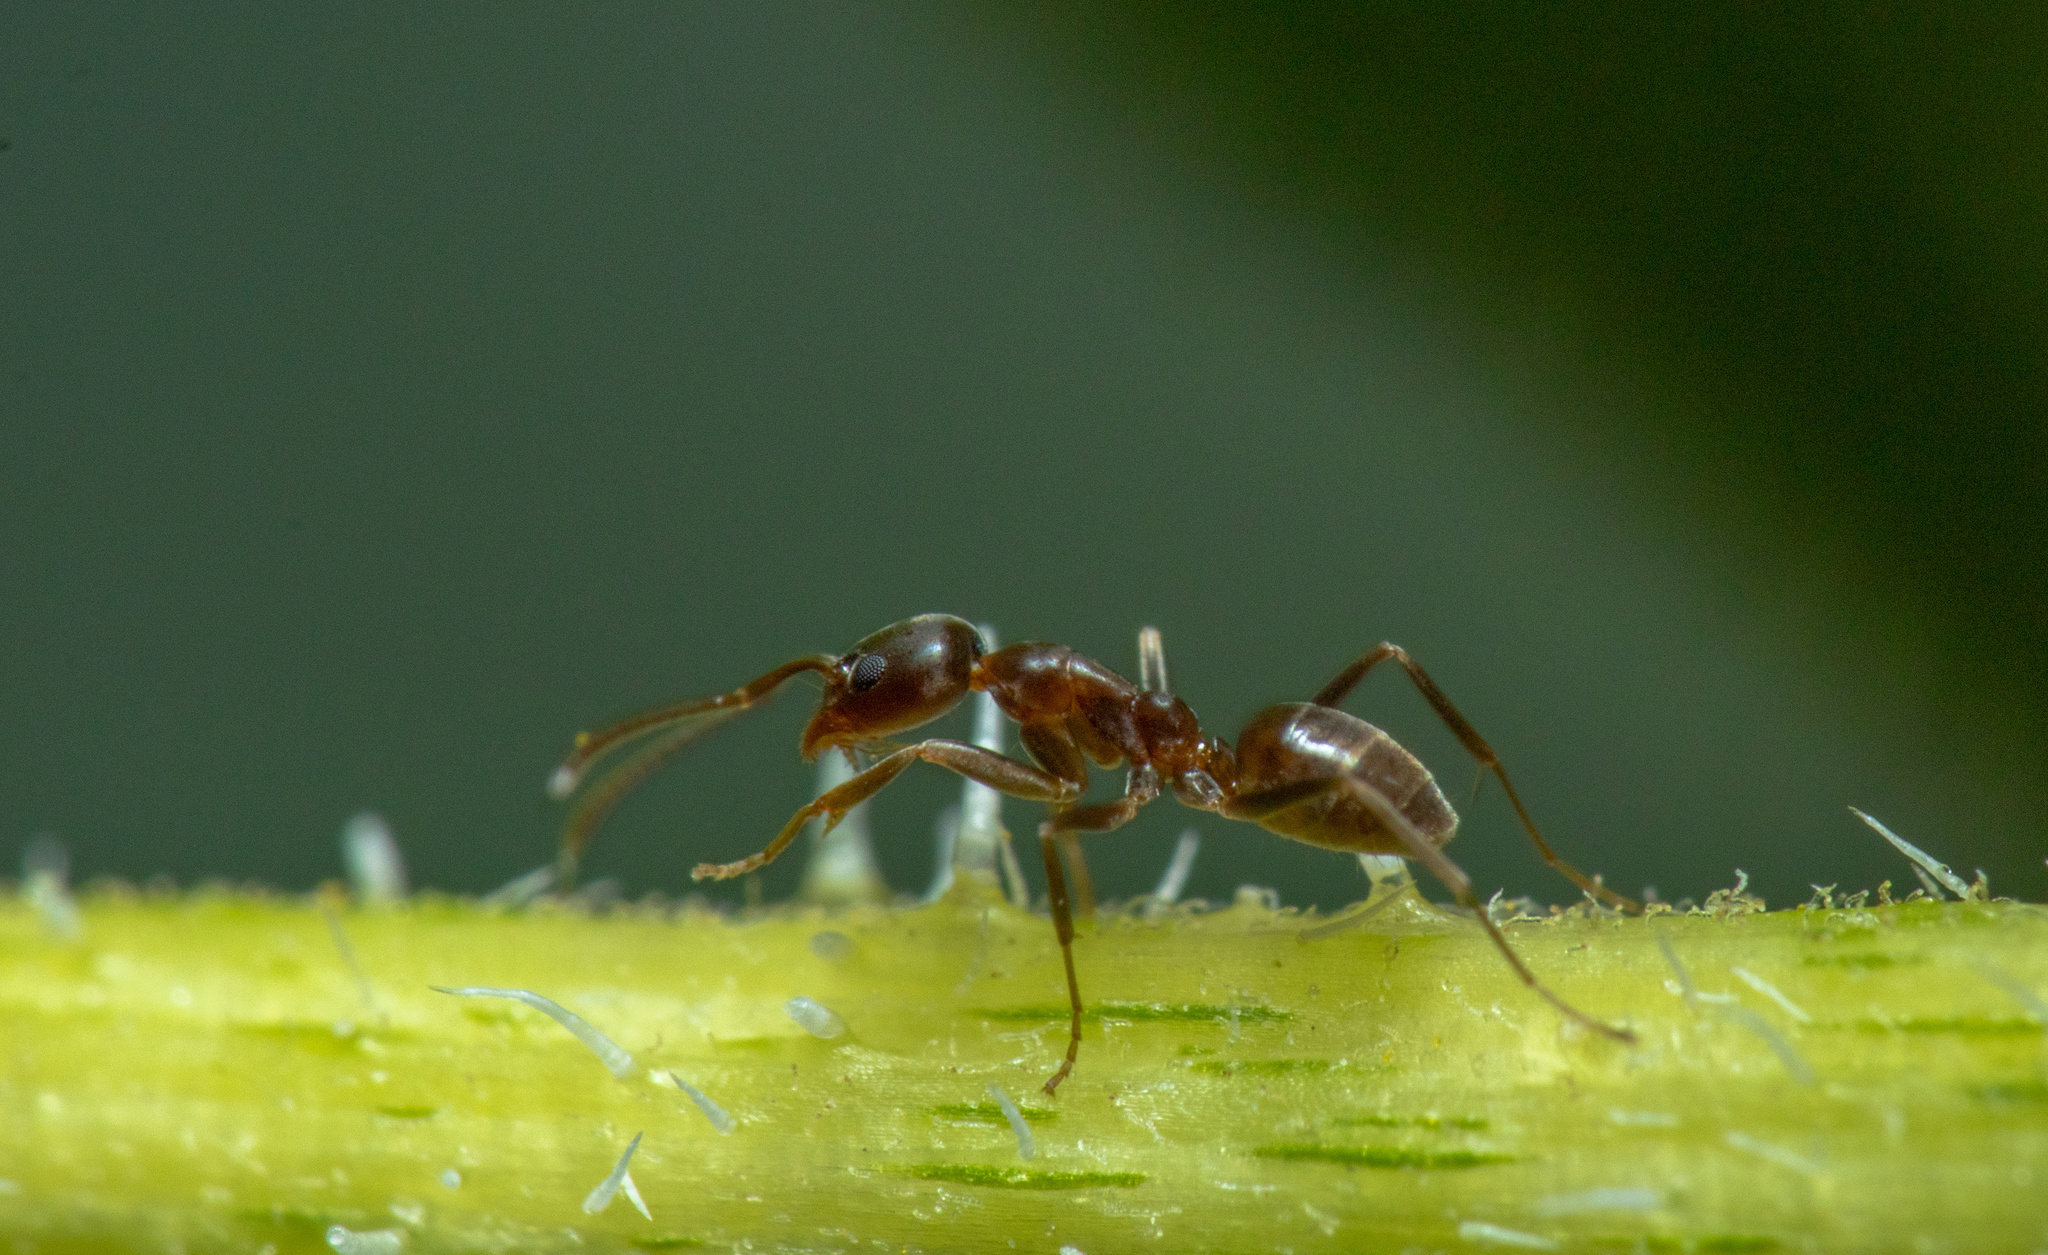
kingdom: Animalia
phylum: Arthropoda
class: Insecta
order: Hymenoptera
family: Formicidae
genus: Linepithema
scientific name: Linepithema humile
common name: Argentine ant
